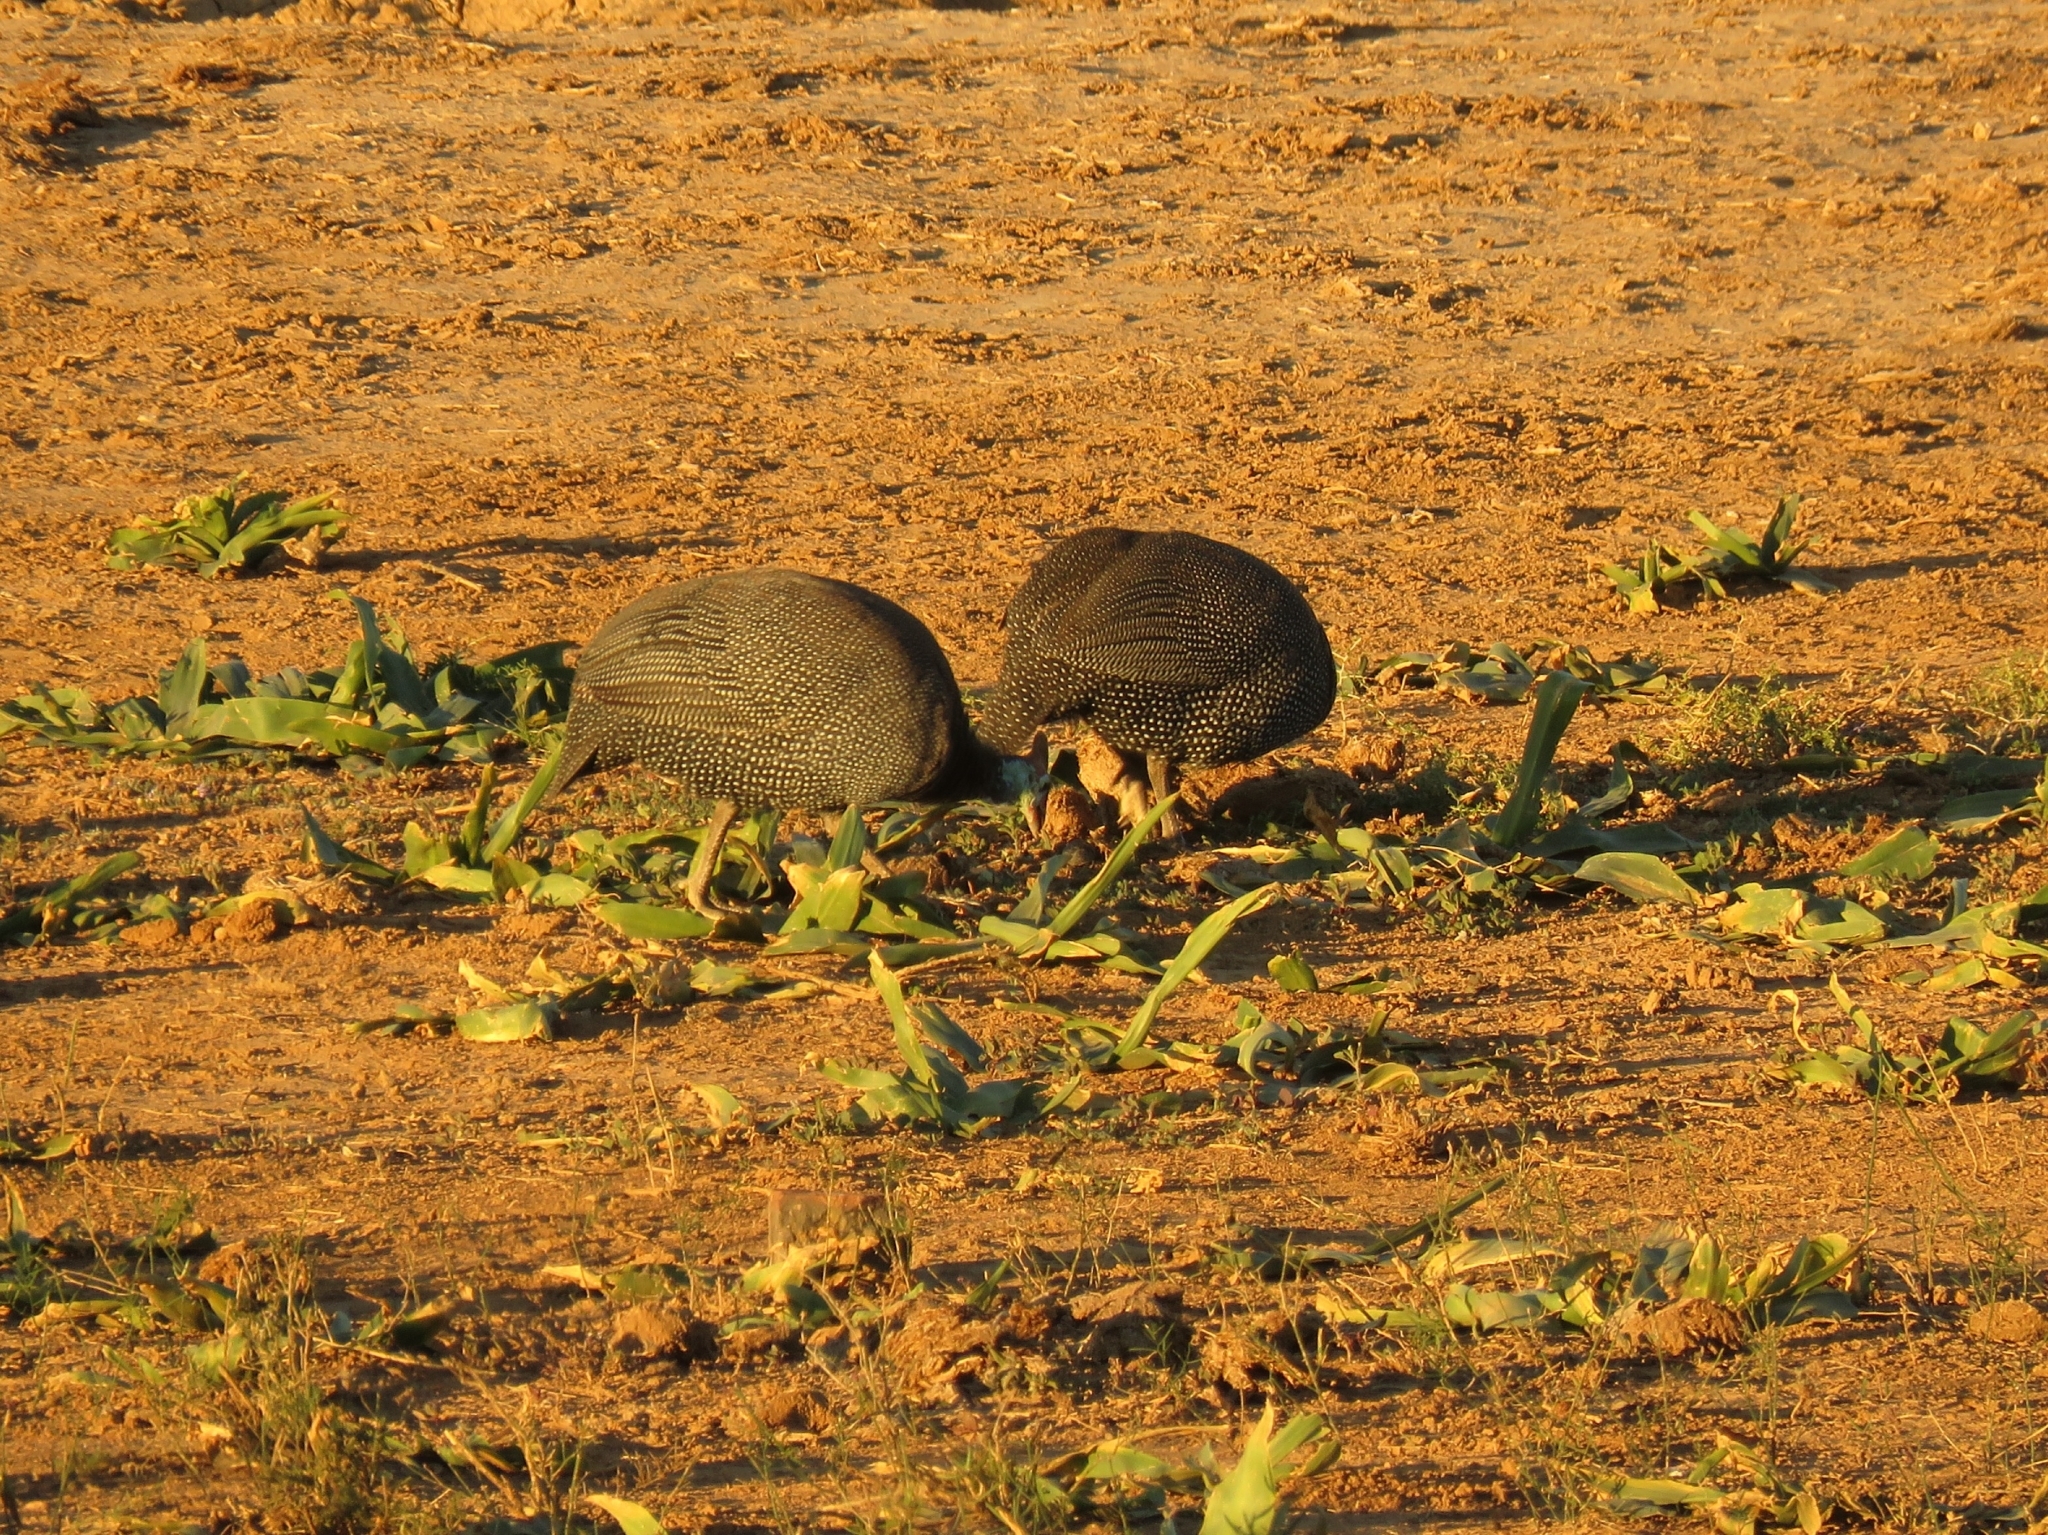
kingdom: Animalia
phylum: Chordata
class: Aves
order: Galliformes
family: Numididae
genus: Numida
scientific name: Numida meleagris
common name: Helmeted guineafowl
